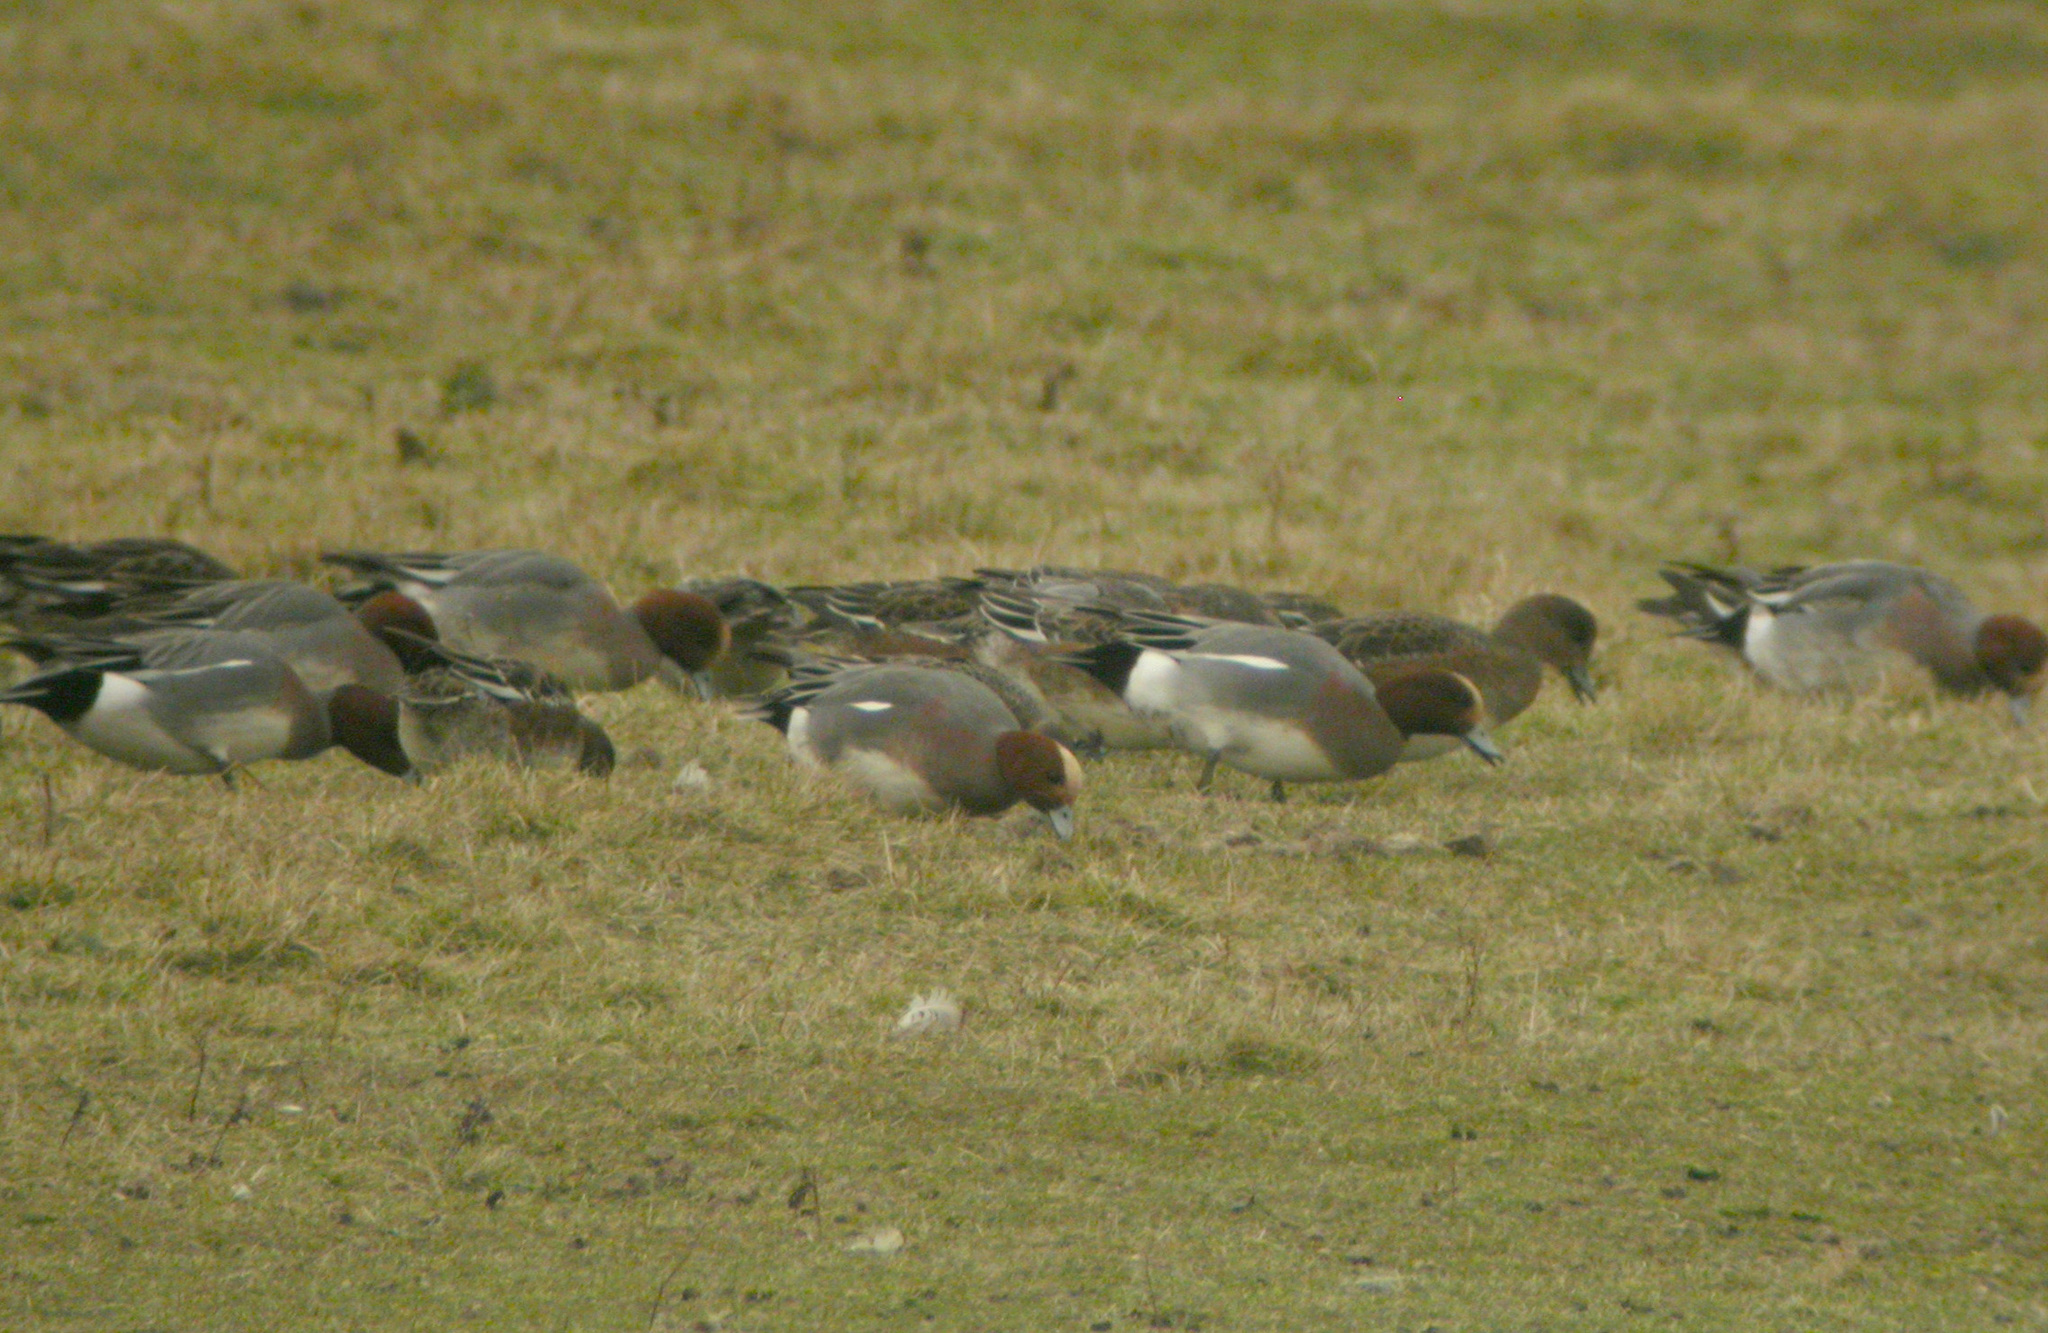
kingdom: Animalia
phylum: Chordata
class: Aves
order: Anseriformes
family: Anatidae
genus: Mareca
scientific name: Mareca penelope
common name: Eurasian wigeon
